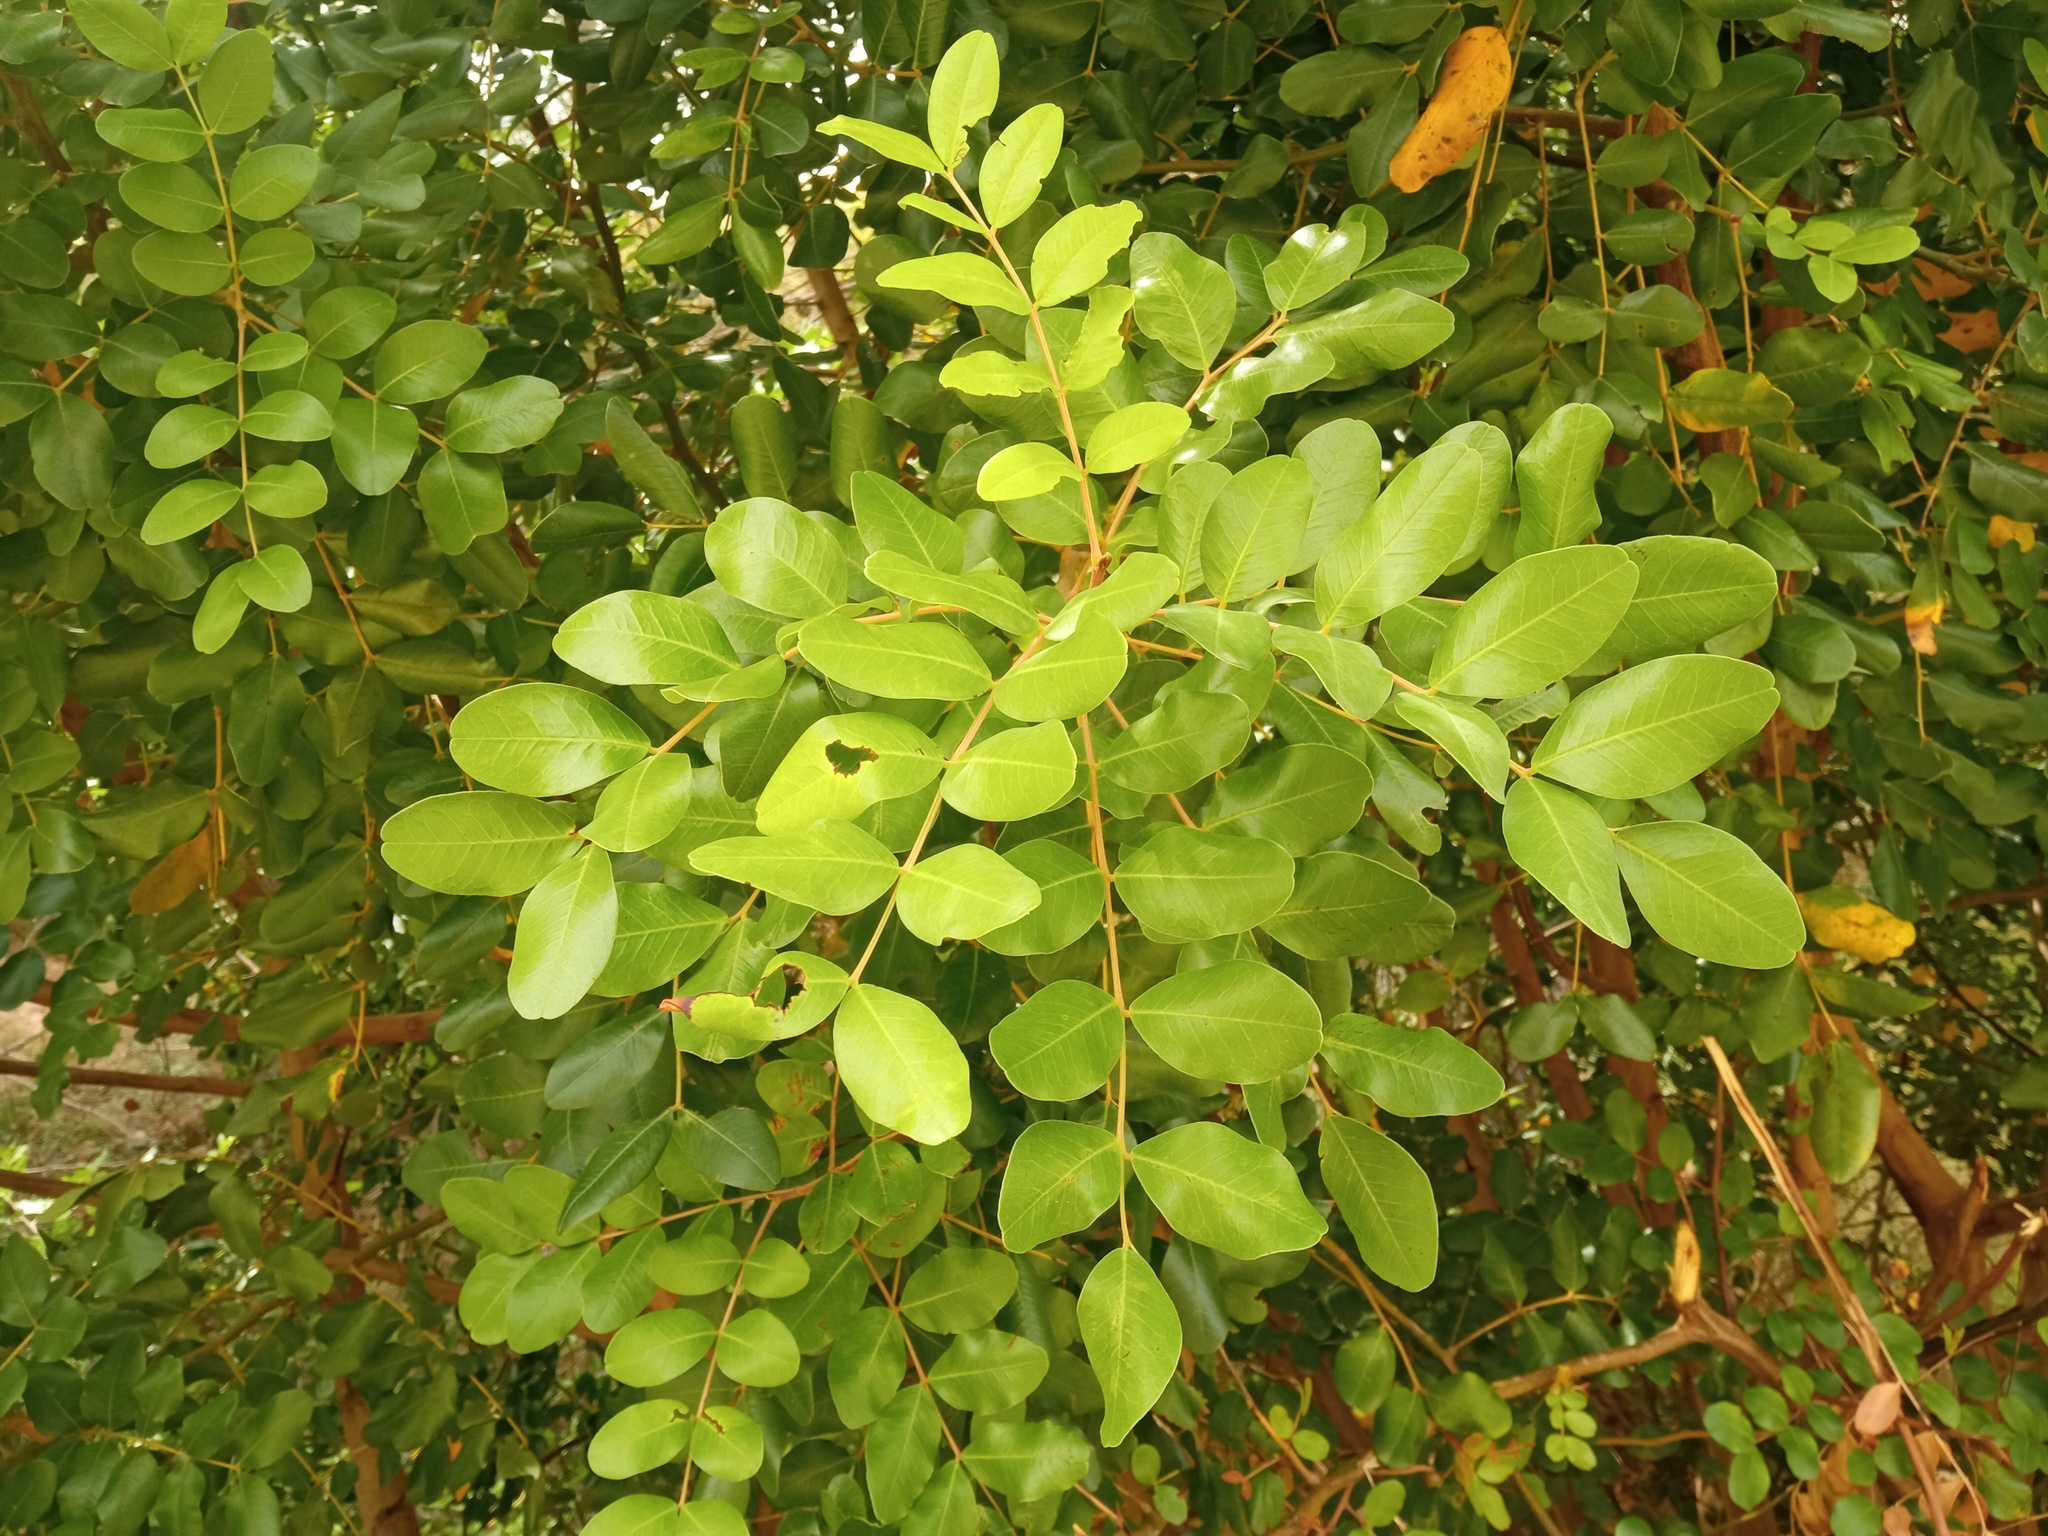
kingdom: Plantae
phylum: Tracheophyta
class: Magnoliopsida
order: Fabales
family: Fabaceae
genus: Ceratonia
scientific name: Ceratonia siliqua
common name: Carob
